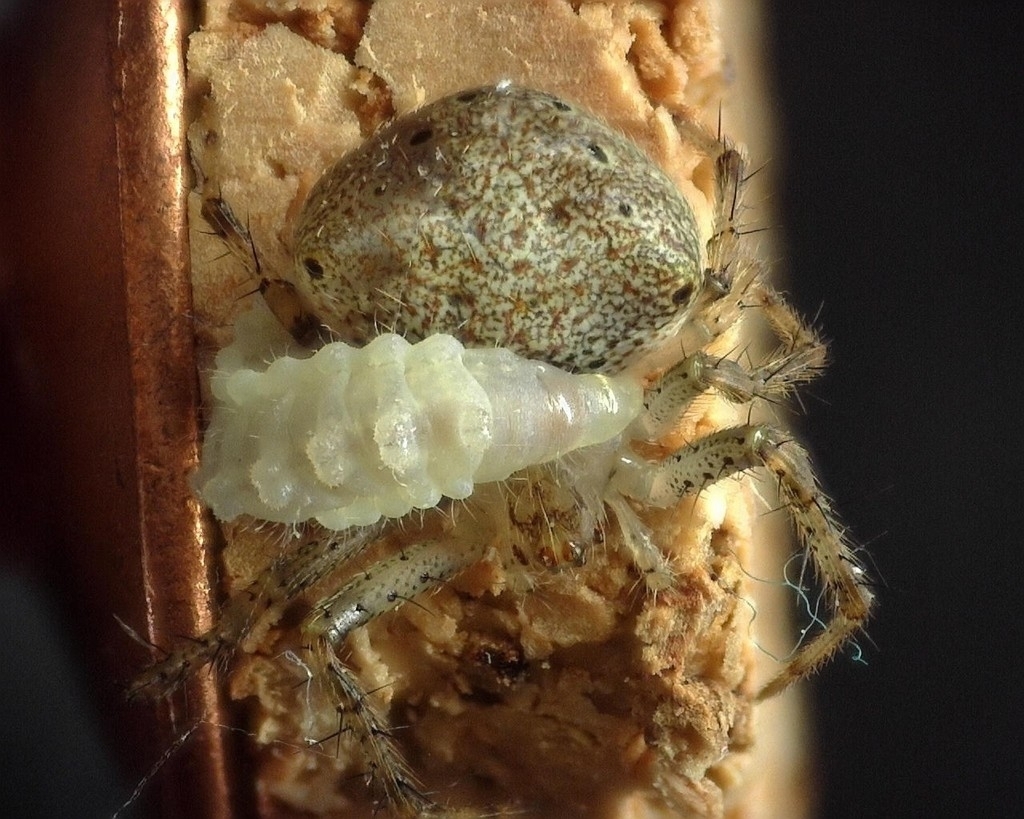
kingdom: Animalia
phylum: Arthropoda
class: Arachnida
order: Araneae
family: Araneidae
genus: Araneus
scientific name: Araneus miniatus
